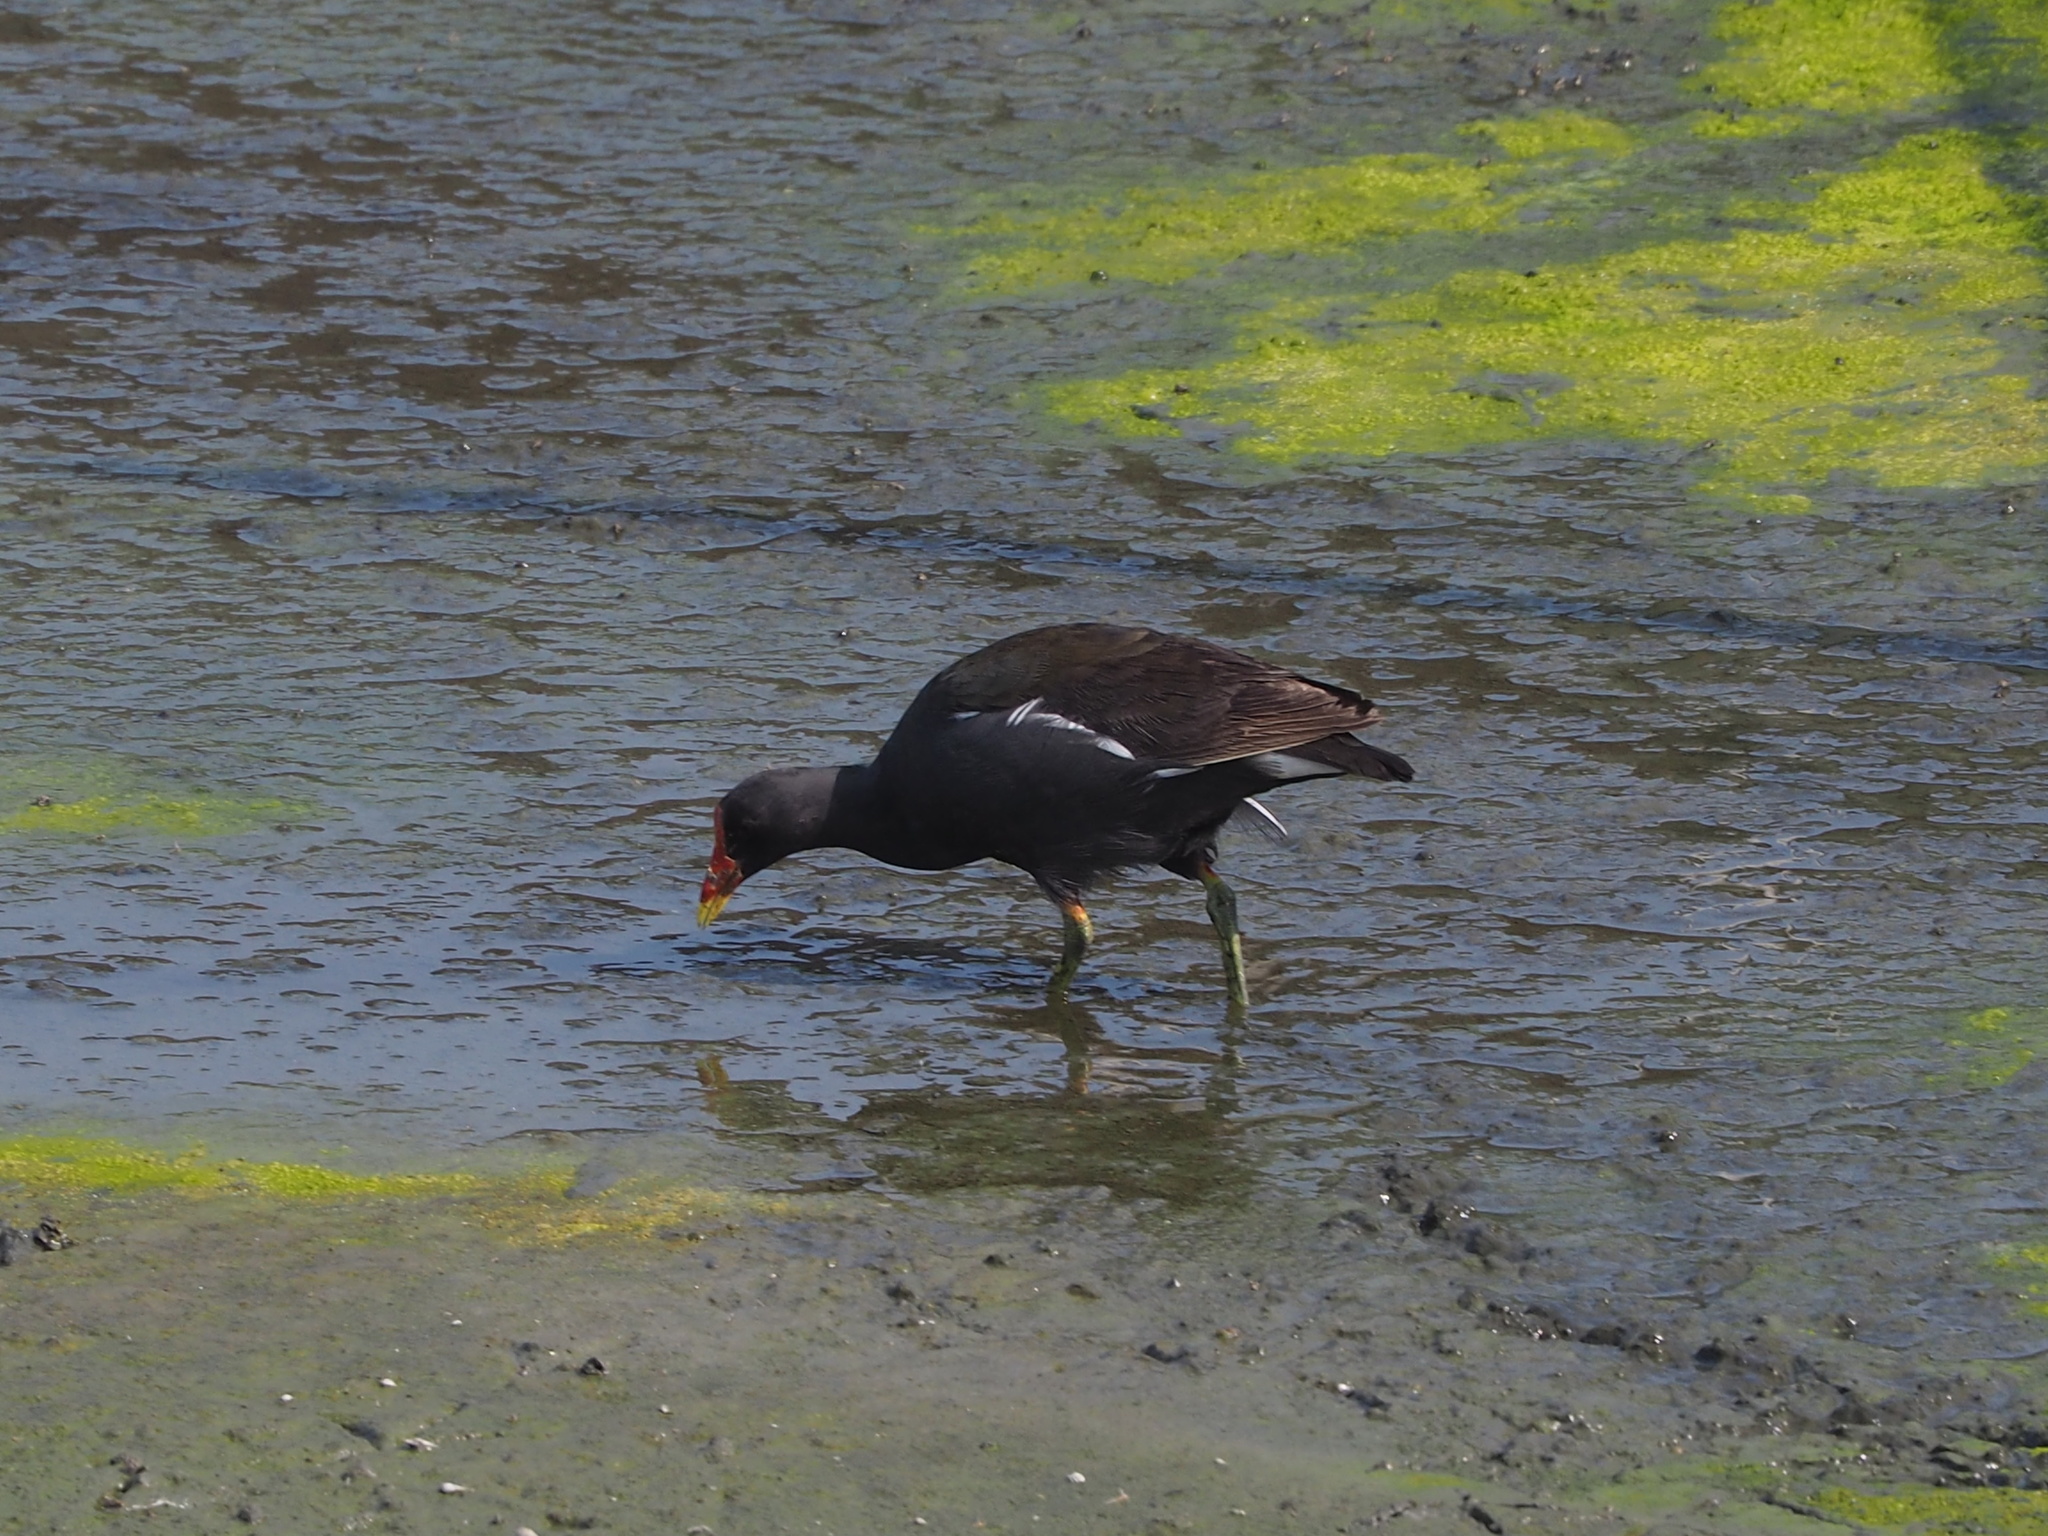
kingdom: Animalia
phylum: Chordata
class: Aves
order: Gruiformes
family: Rallidae
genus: Gallinula
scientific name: Gallinula chloropus
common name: Common moorhen
